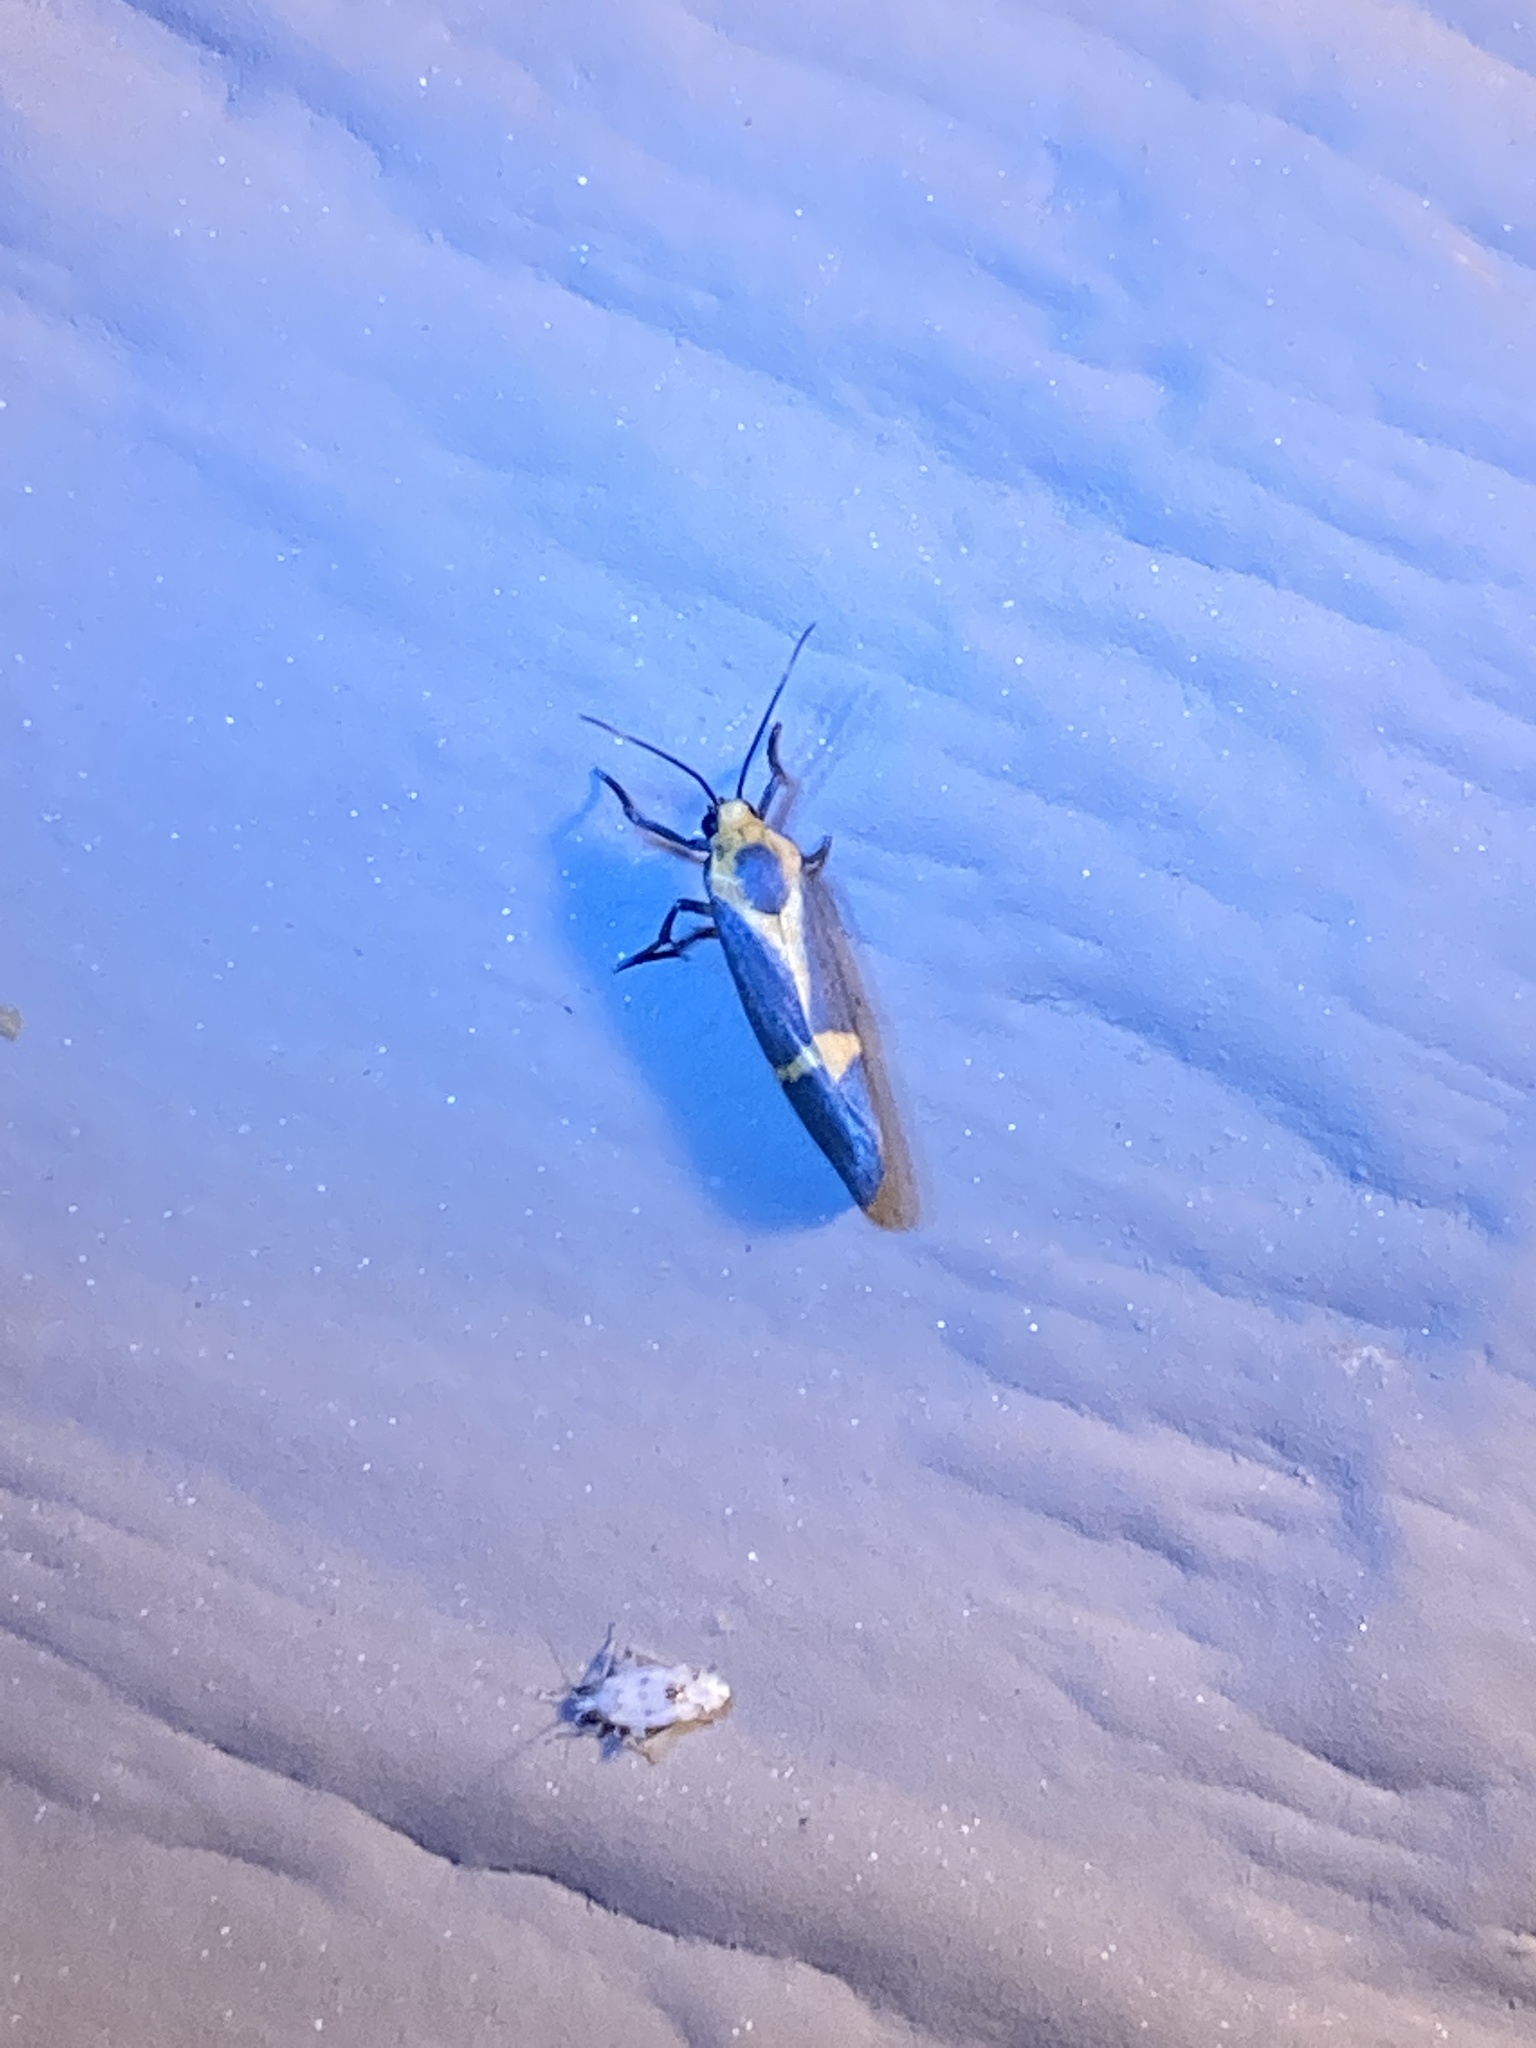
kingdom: Animalia
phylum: Arthropoda
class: Insecta
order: Lepidoptera
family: Erebidae
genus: Cisthene
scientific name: Cisthene tenuifascia
